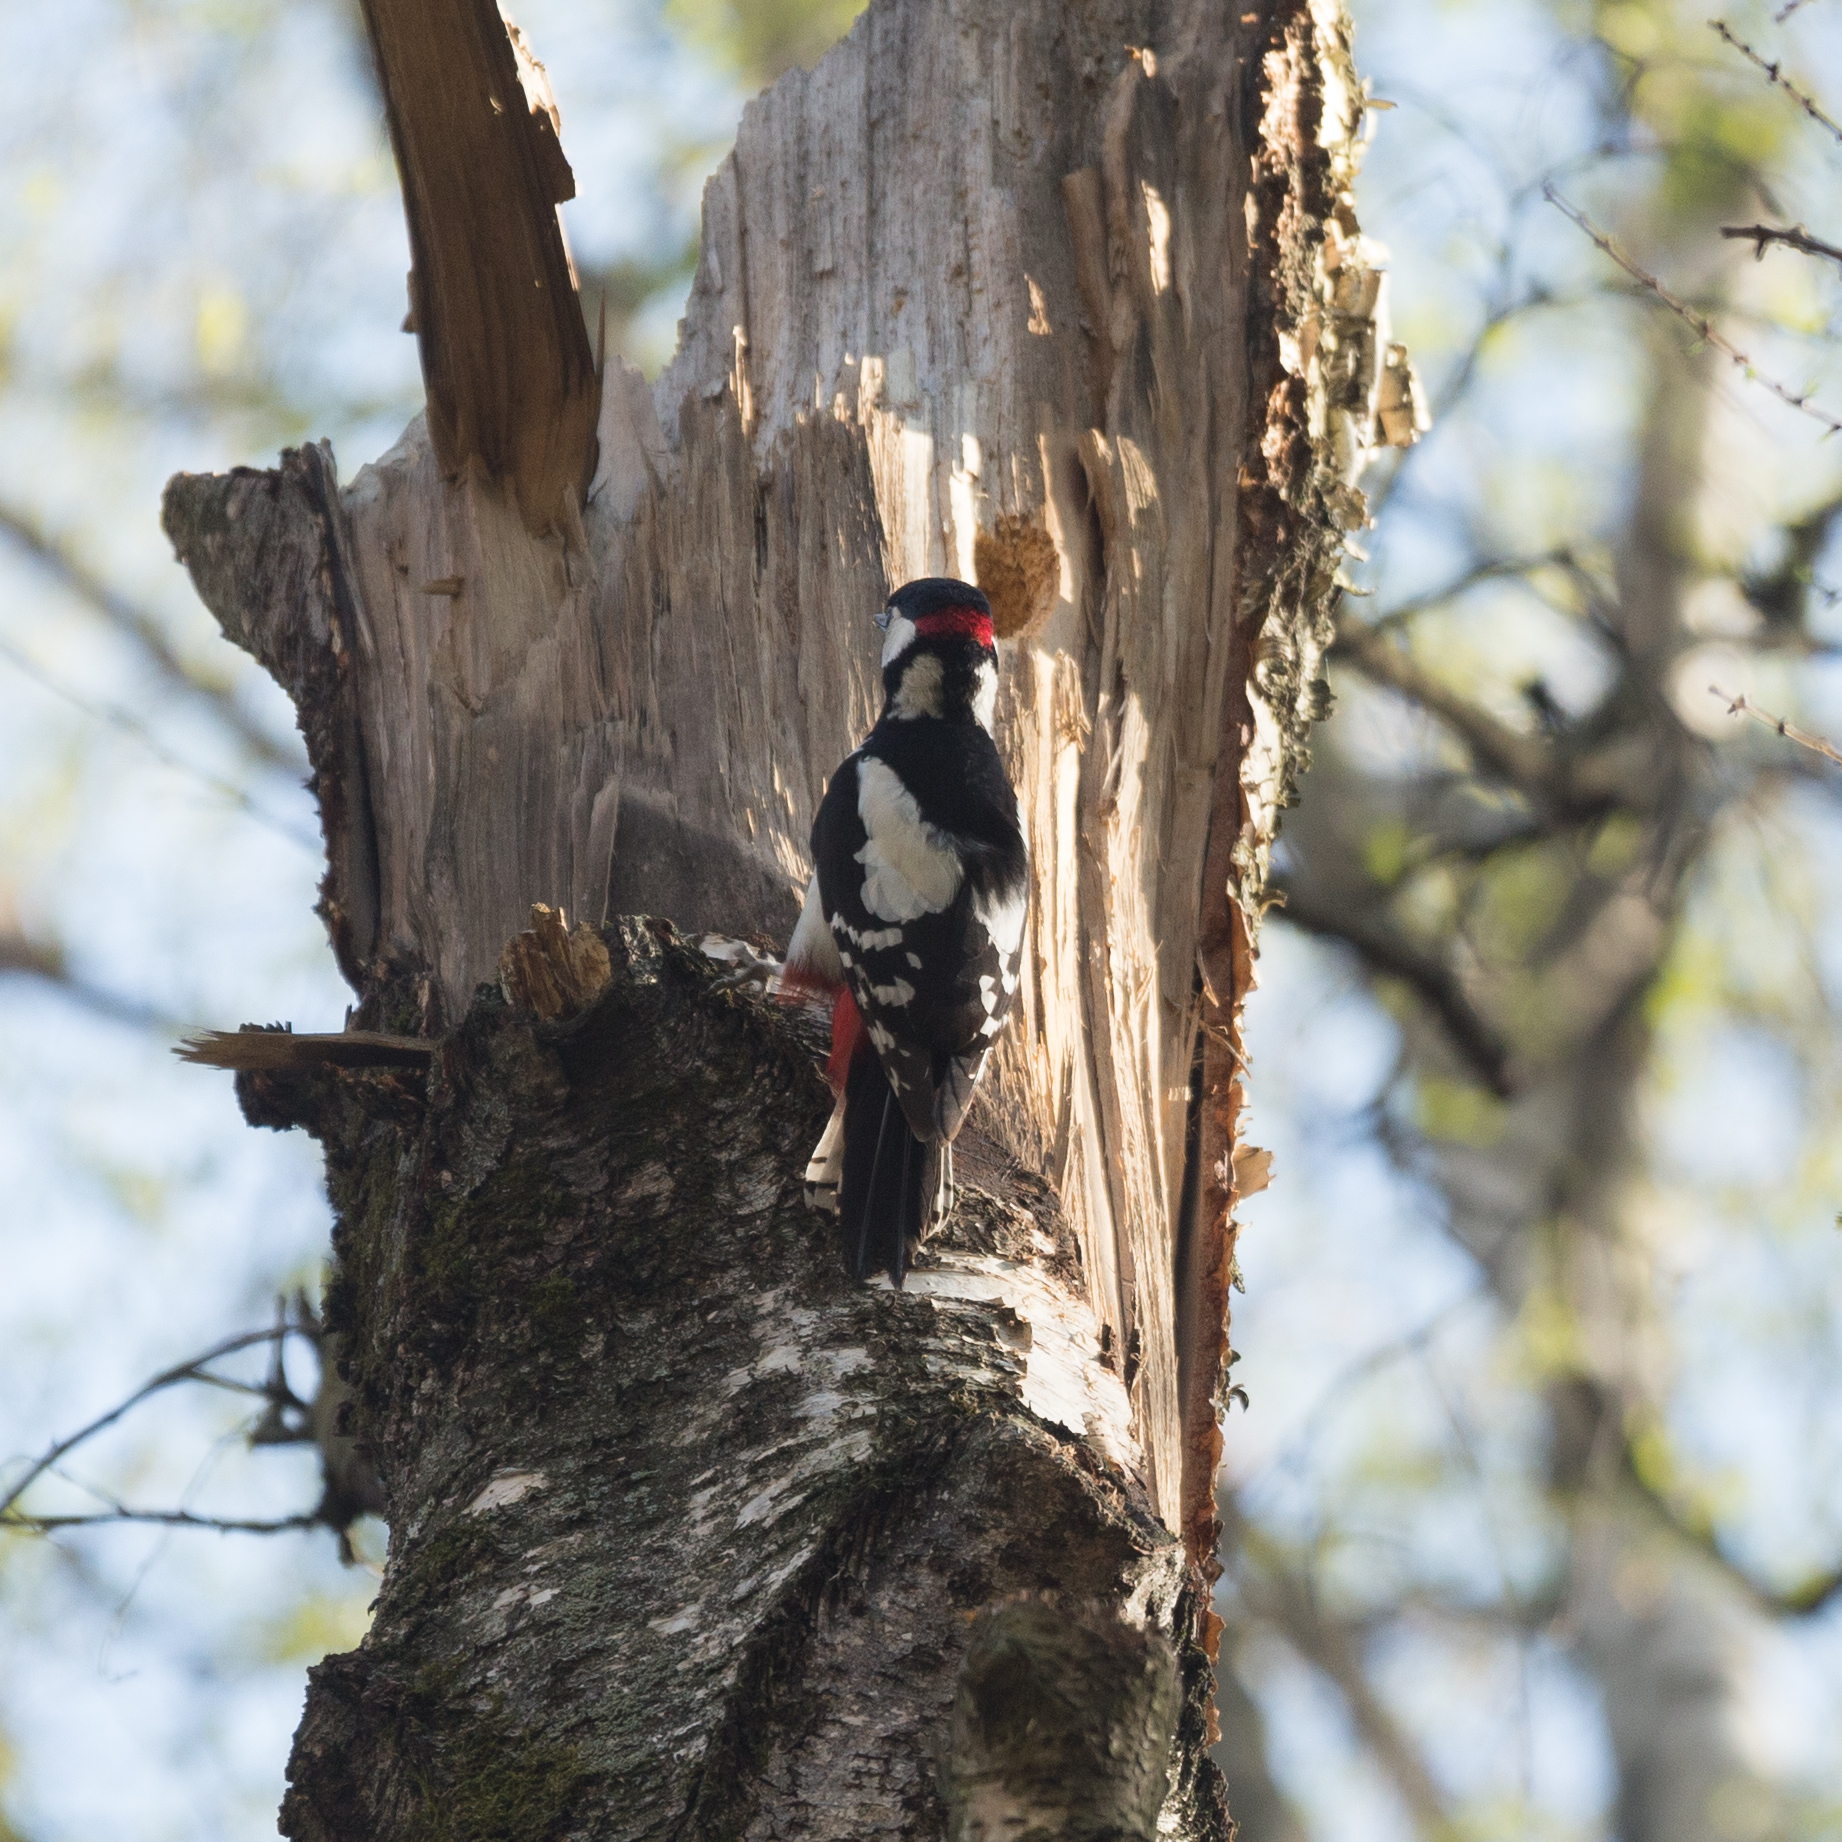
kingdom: Animalia
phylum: Chordata
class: Aves
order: Piciformes
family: Picidae
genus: Dendrocopos
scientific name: Dendrocopos major
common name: Great spotted woodpecker
